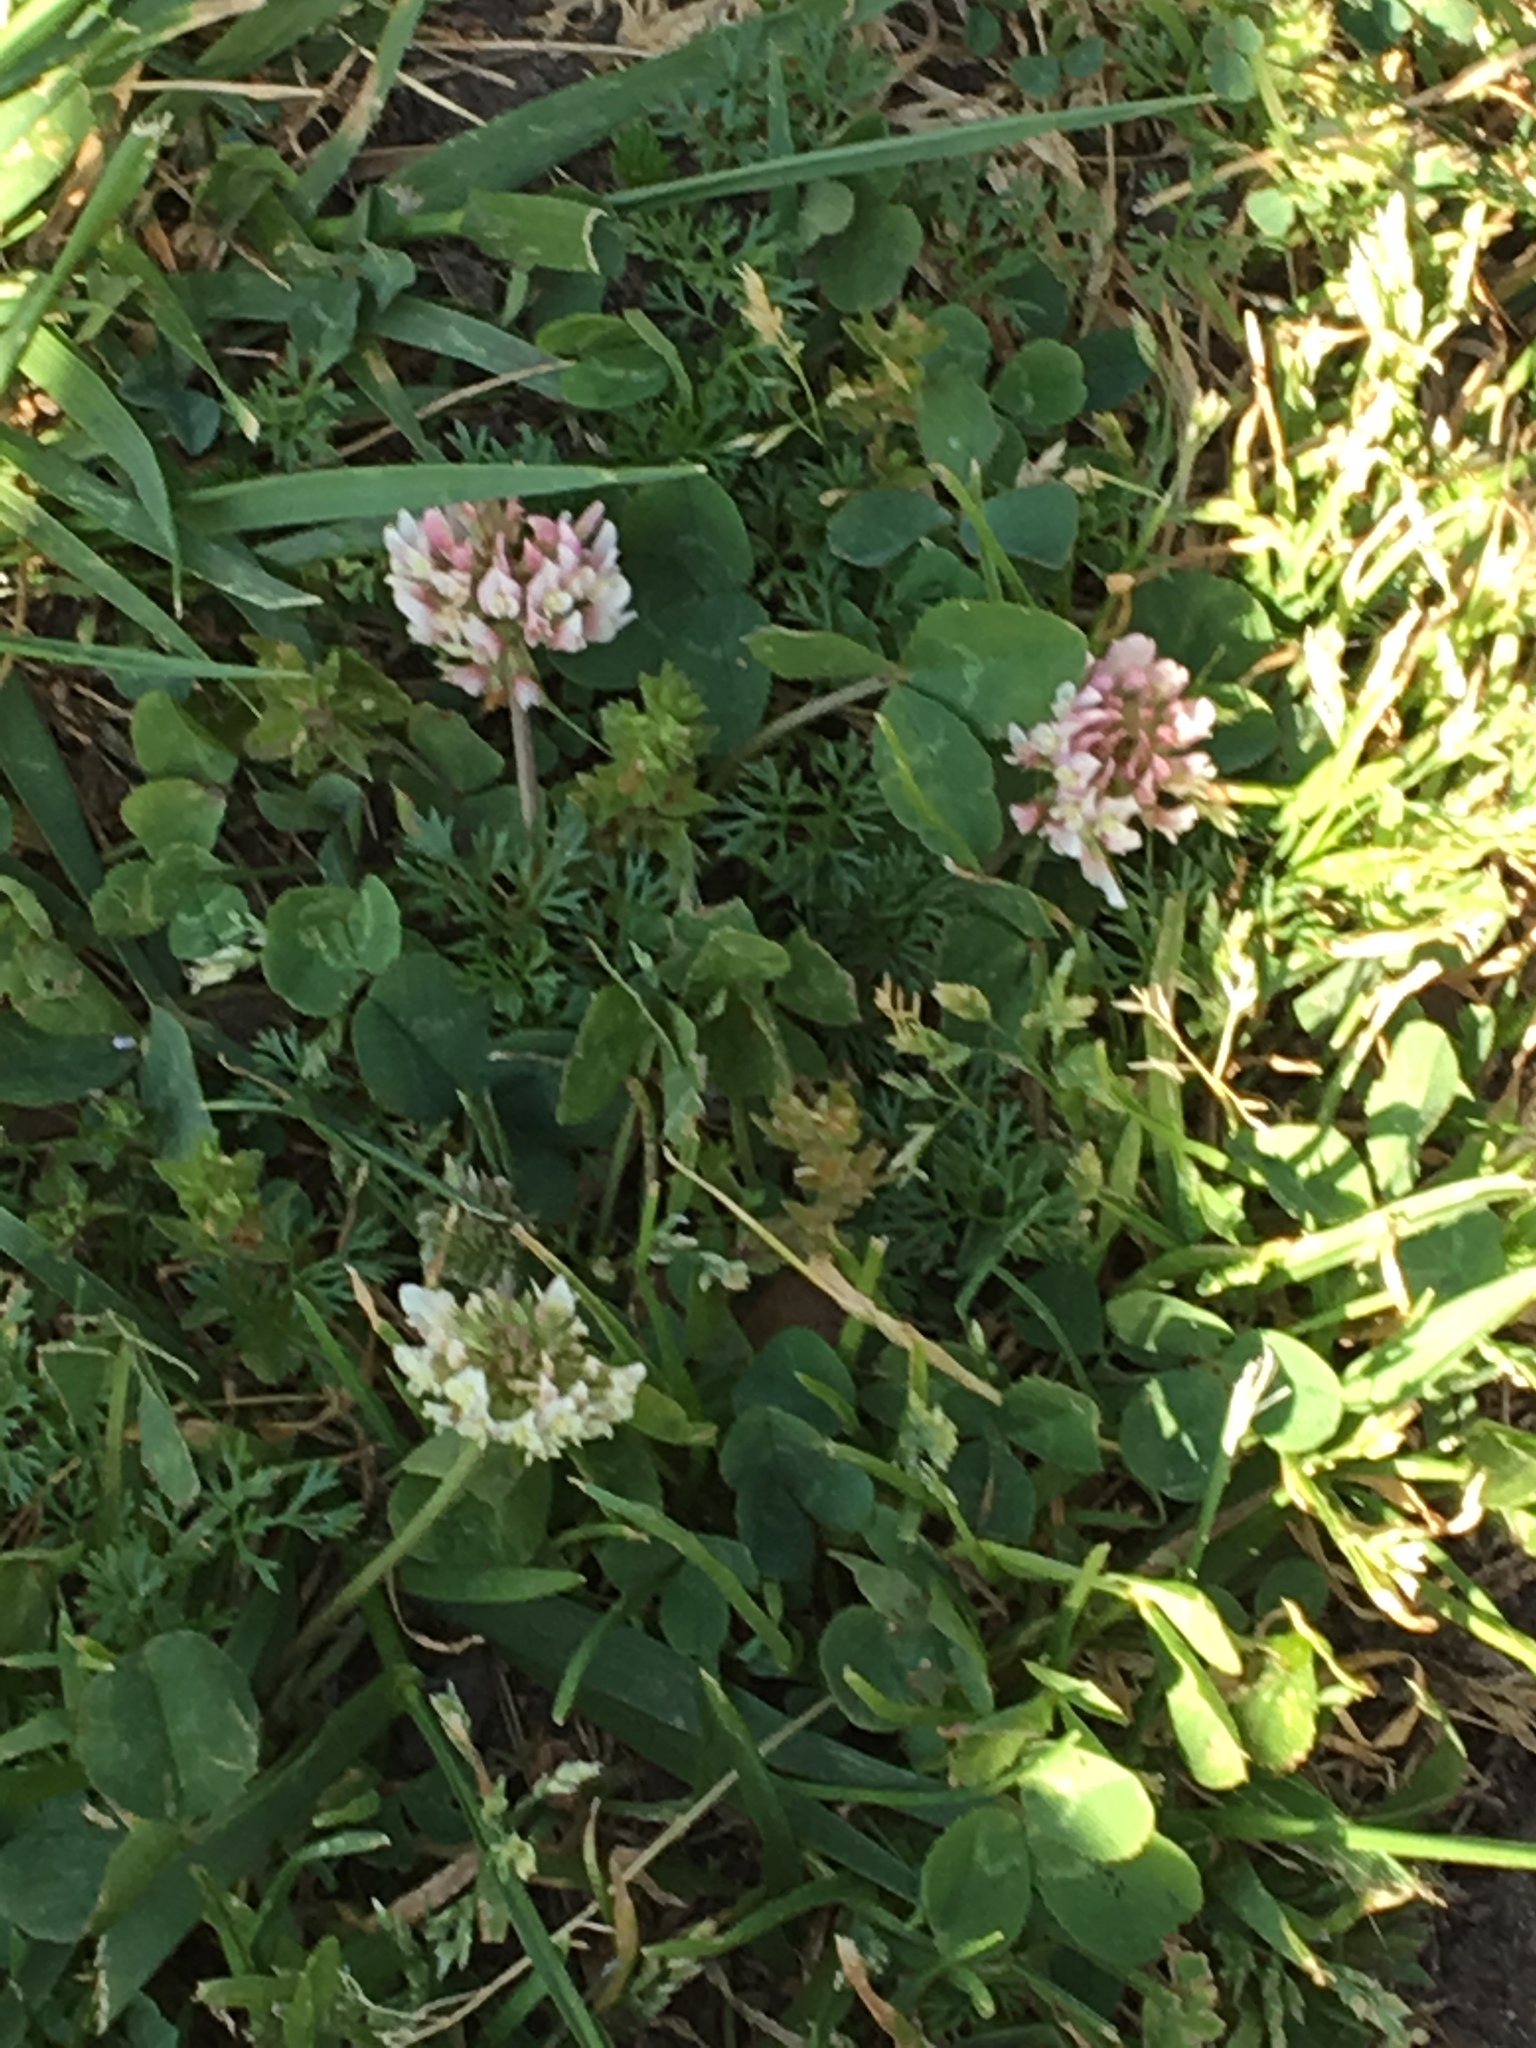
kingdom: Plantae
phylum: Tracheophyta
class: Magnoliopsida
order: Fabales
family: Fabaceae
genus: Trifolium
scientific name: Trifolium repens
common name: White clover
